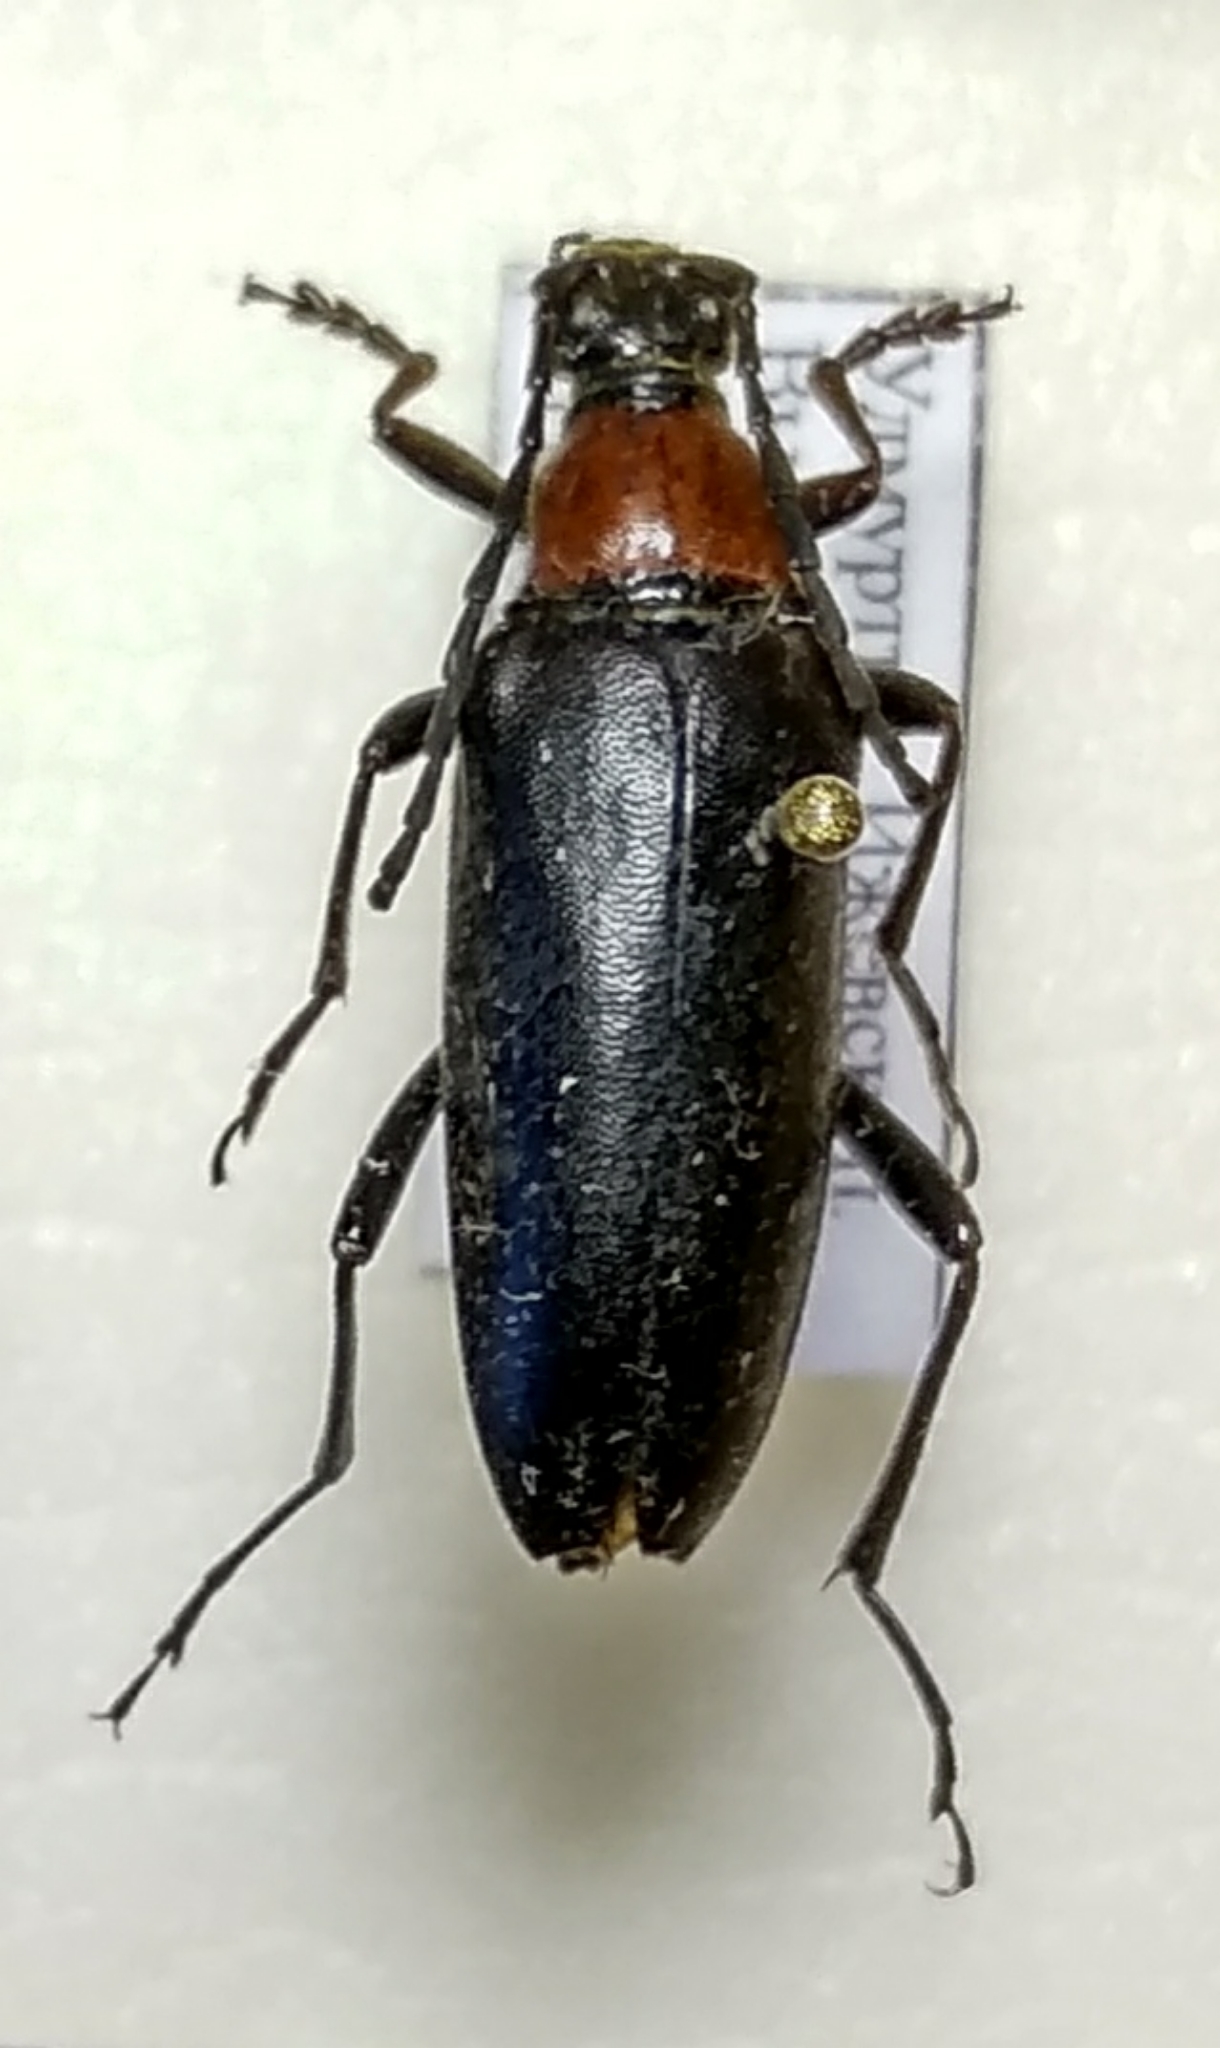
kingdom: Animalia
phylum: Arthropoda
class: Insecta
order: Coleoptera
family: Cerambycidae
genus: Leptura
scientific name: Leptura thoracica
